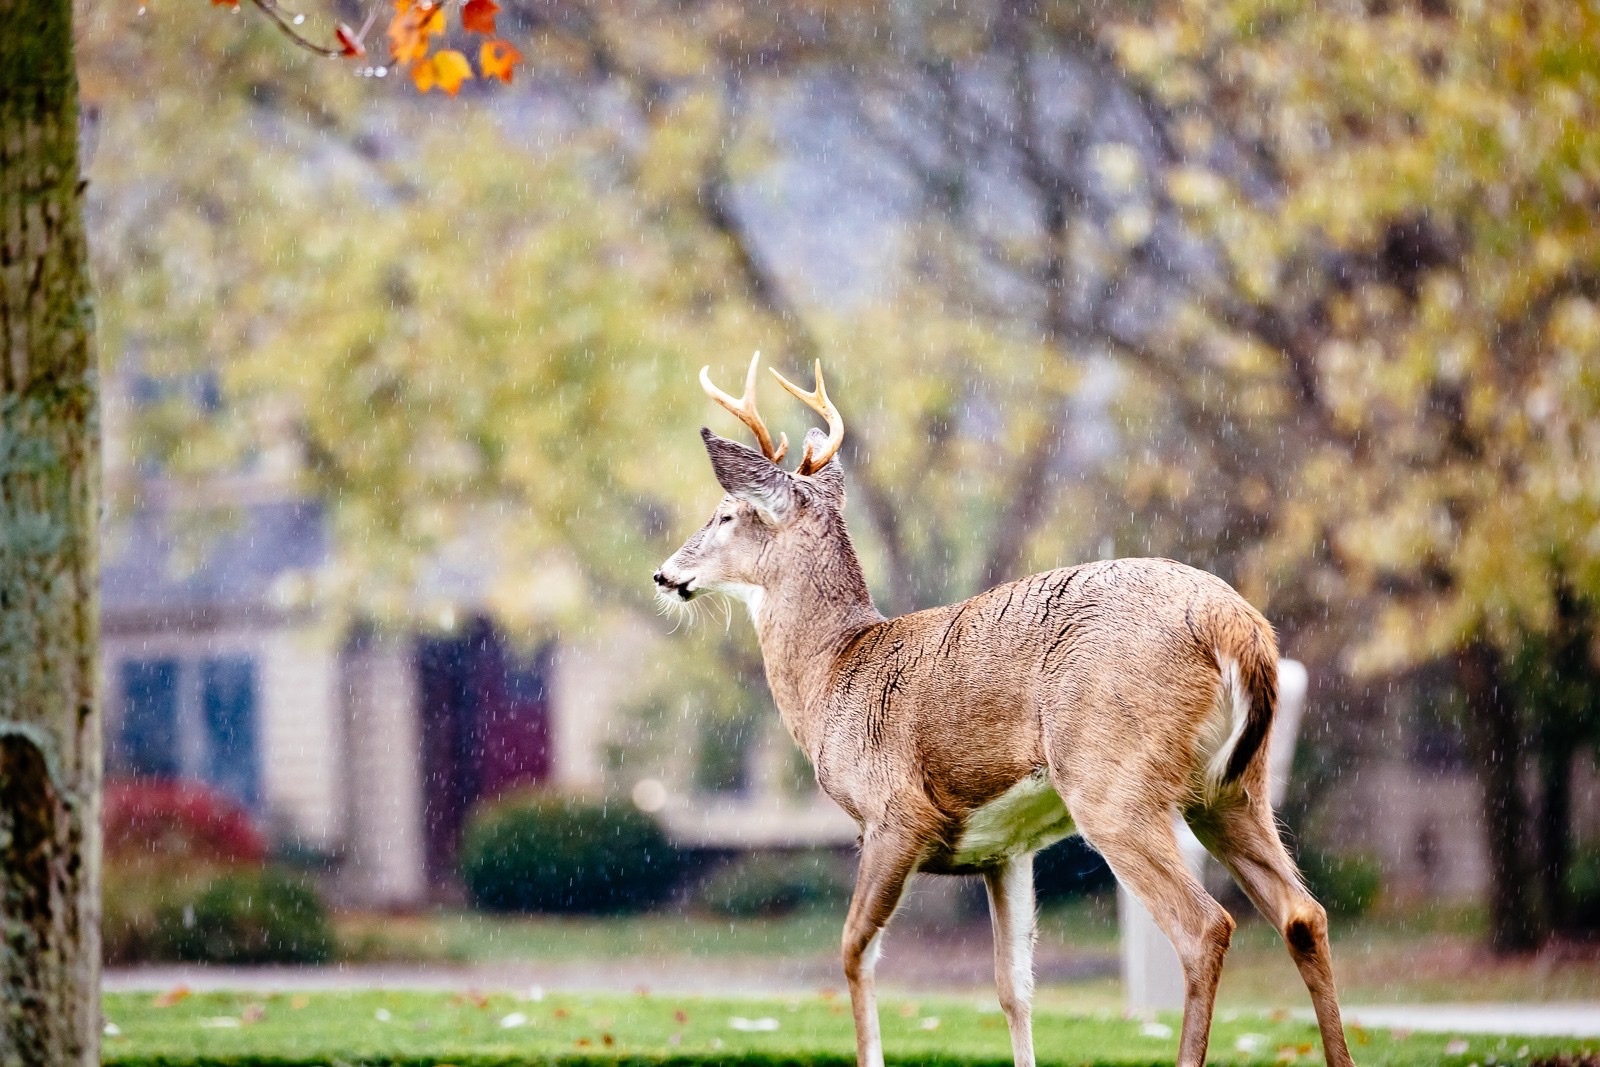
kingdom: Animalia
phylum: Chordata
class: Mammalia
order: Artiodactyla
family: Cervidae
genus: Odocoileus
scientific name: Odocoileus virginianus
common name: White-tailed deer
